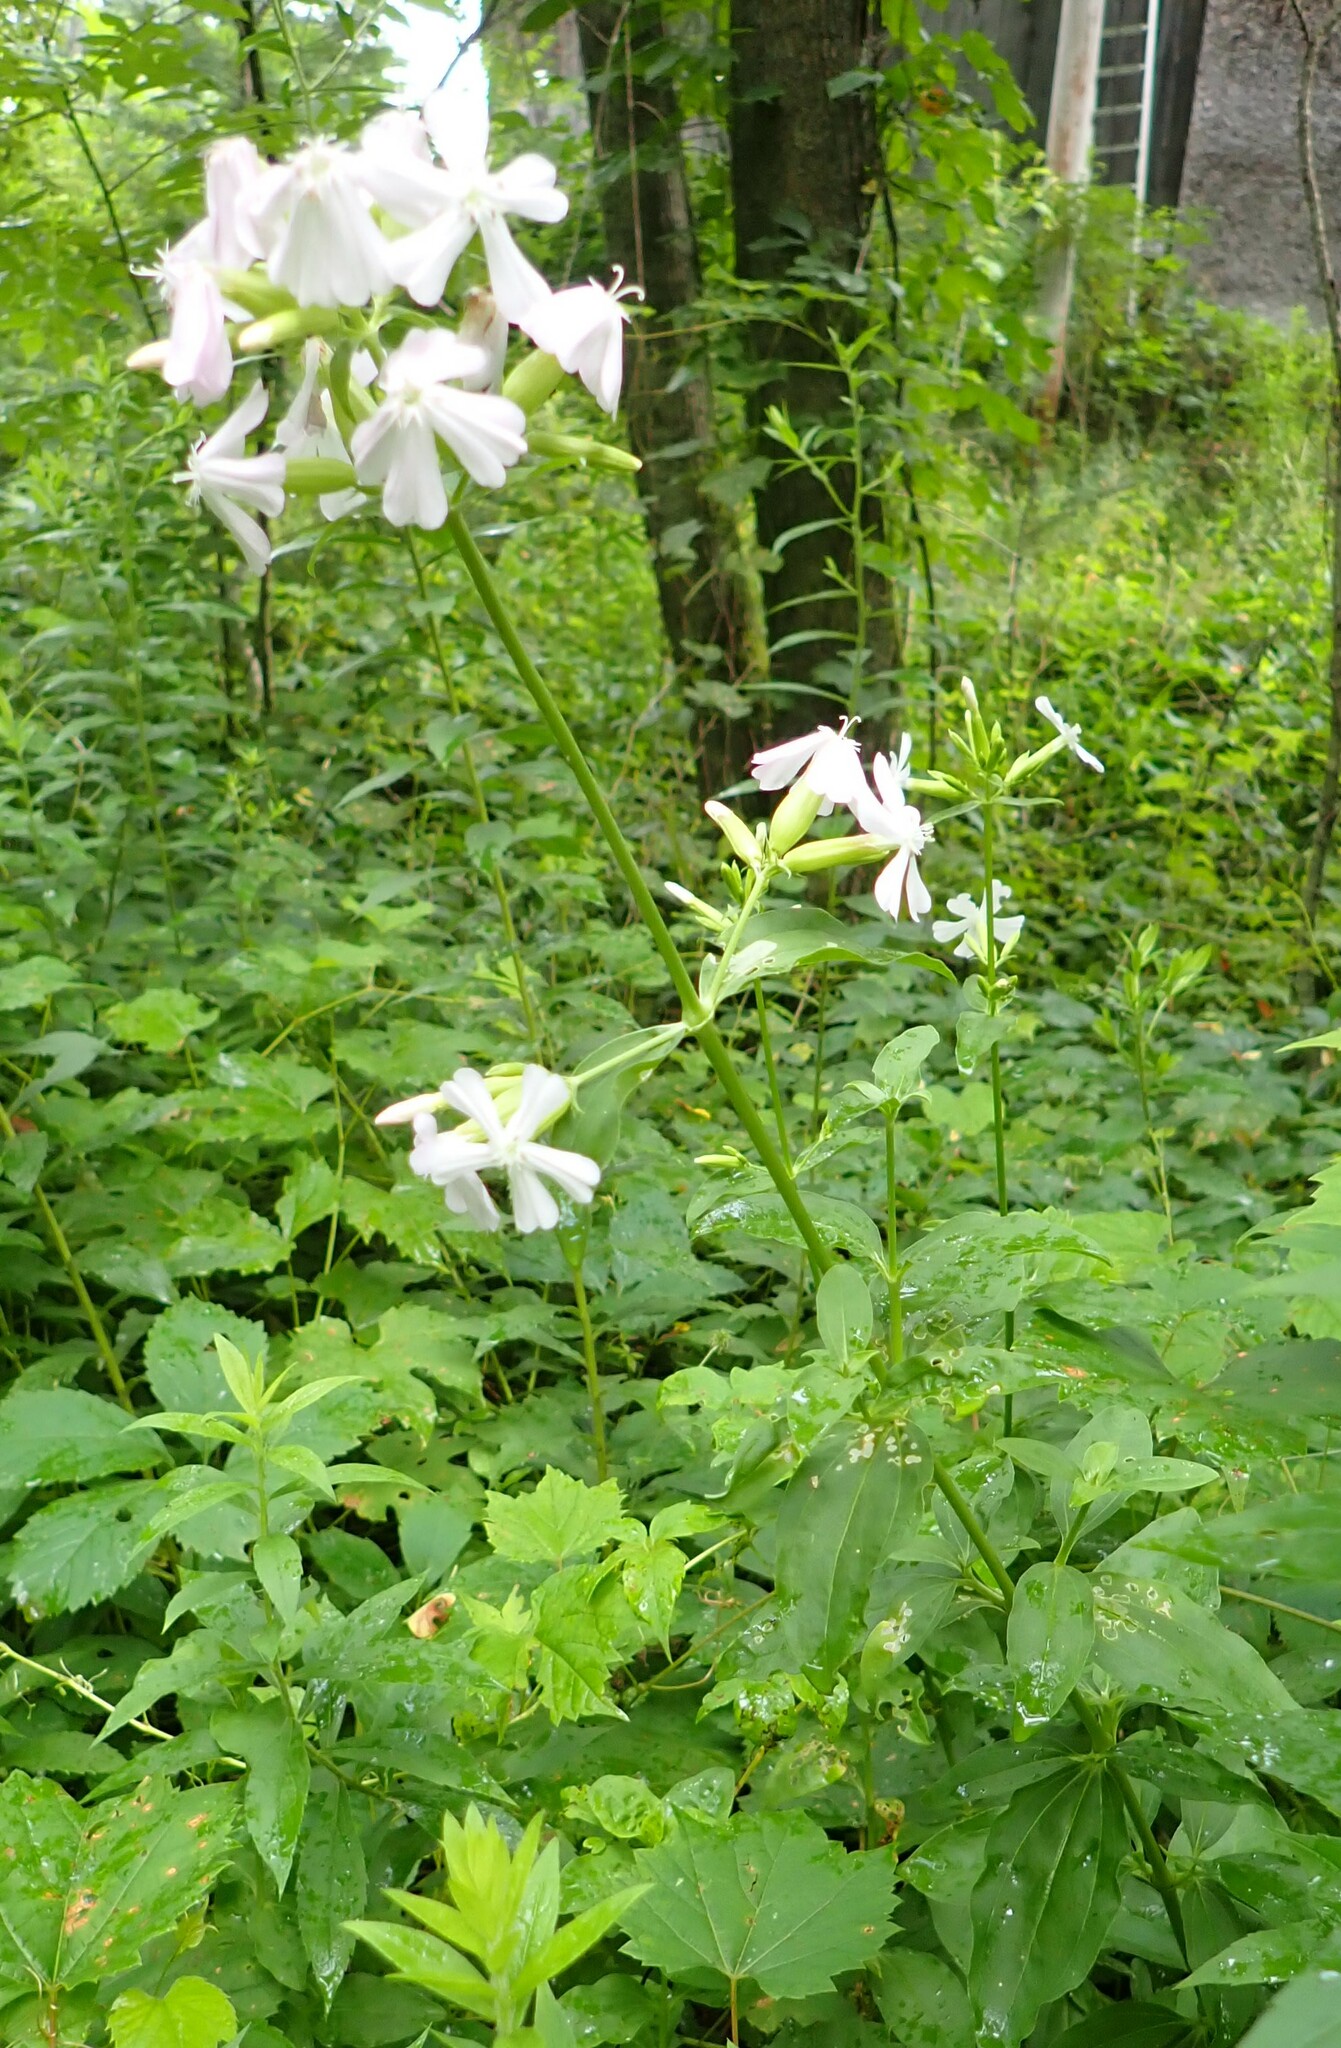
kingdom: Plantae
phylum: Tracheophyta
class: Magnoliopsida
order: Caryophyllales
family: Caryophyllaceae
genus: Saponaria
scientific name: Saponaria officinalis
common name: Soapwort
